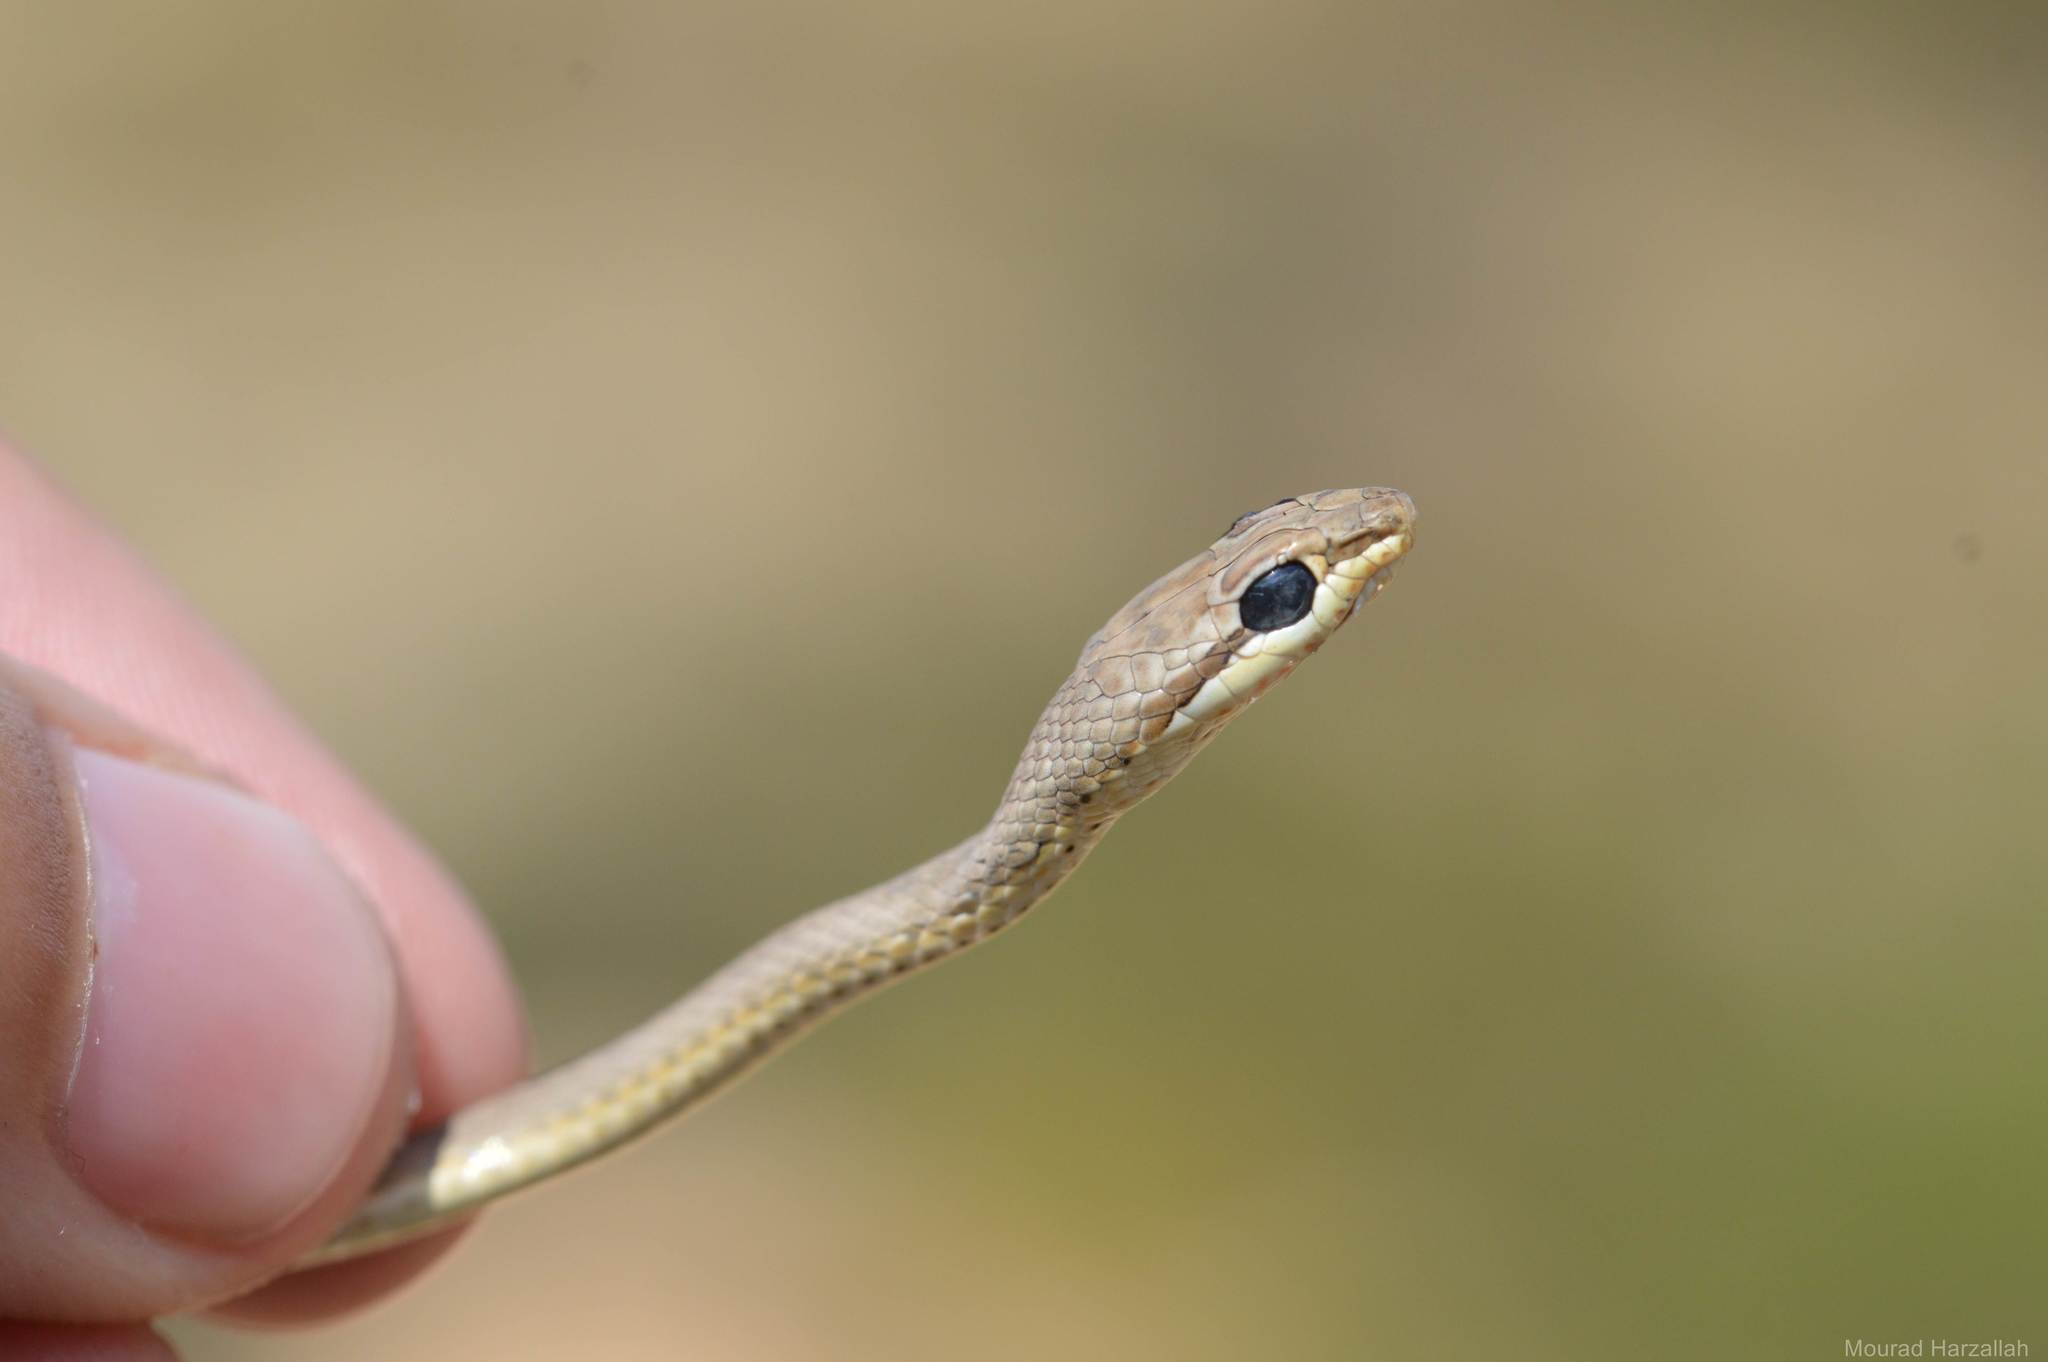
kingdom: Animalia
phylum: Chordata
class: Squamata
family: Psammophiidae
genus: Psammophis
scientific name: Psammophis schokari
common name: Schokari sand racer
